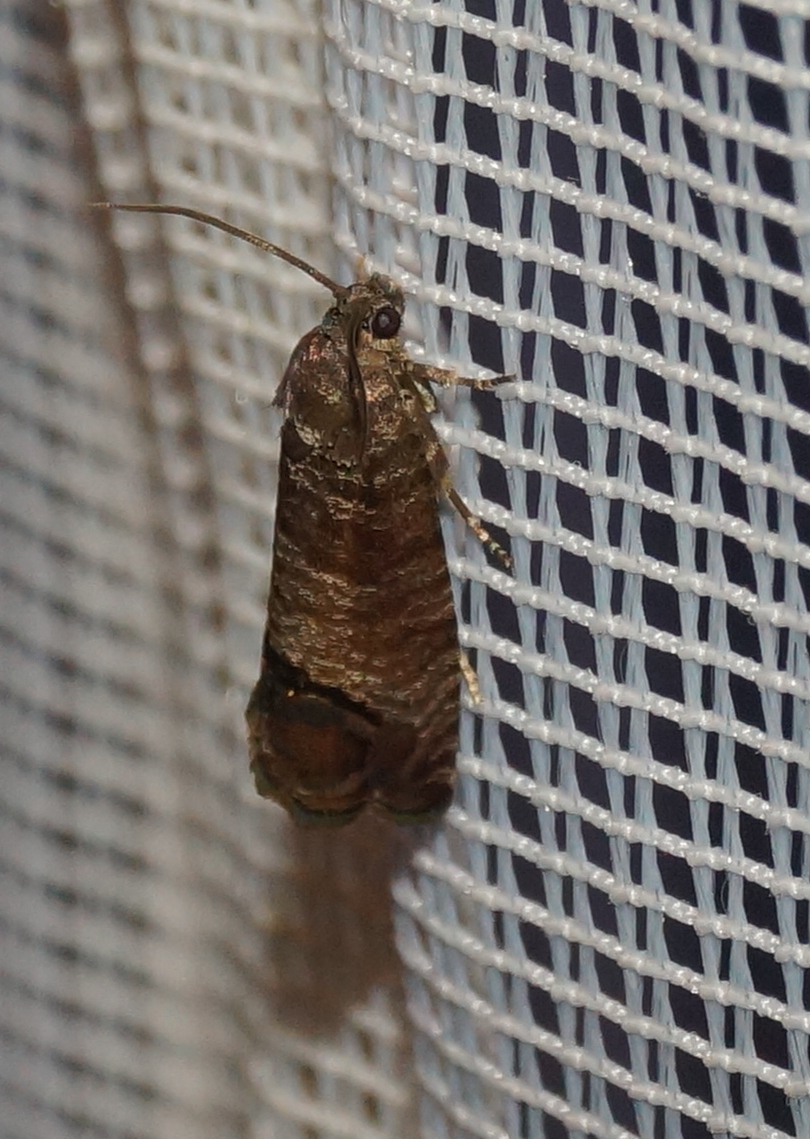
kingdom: Animalia
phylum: Arthropoda
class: Insecta
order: Lepidoptera
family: Tortricidae
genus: Cydia
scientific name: Cydia pomonella
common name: Codling moth
